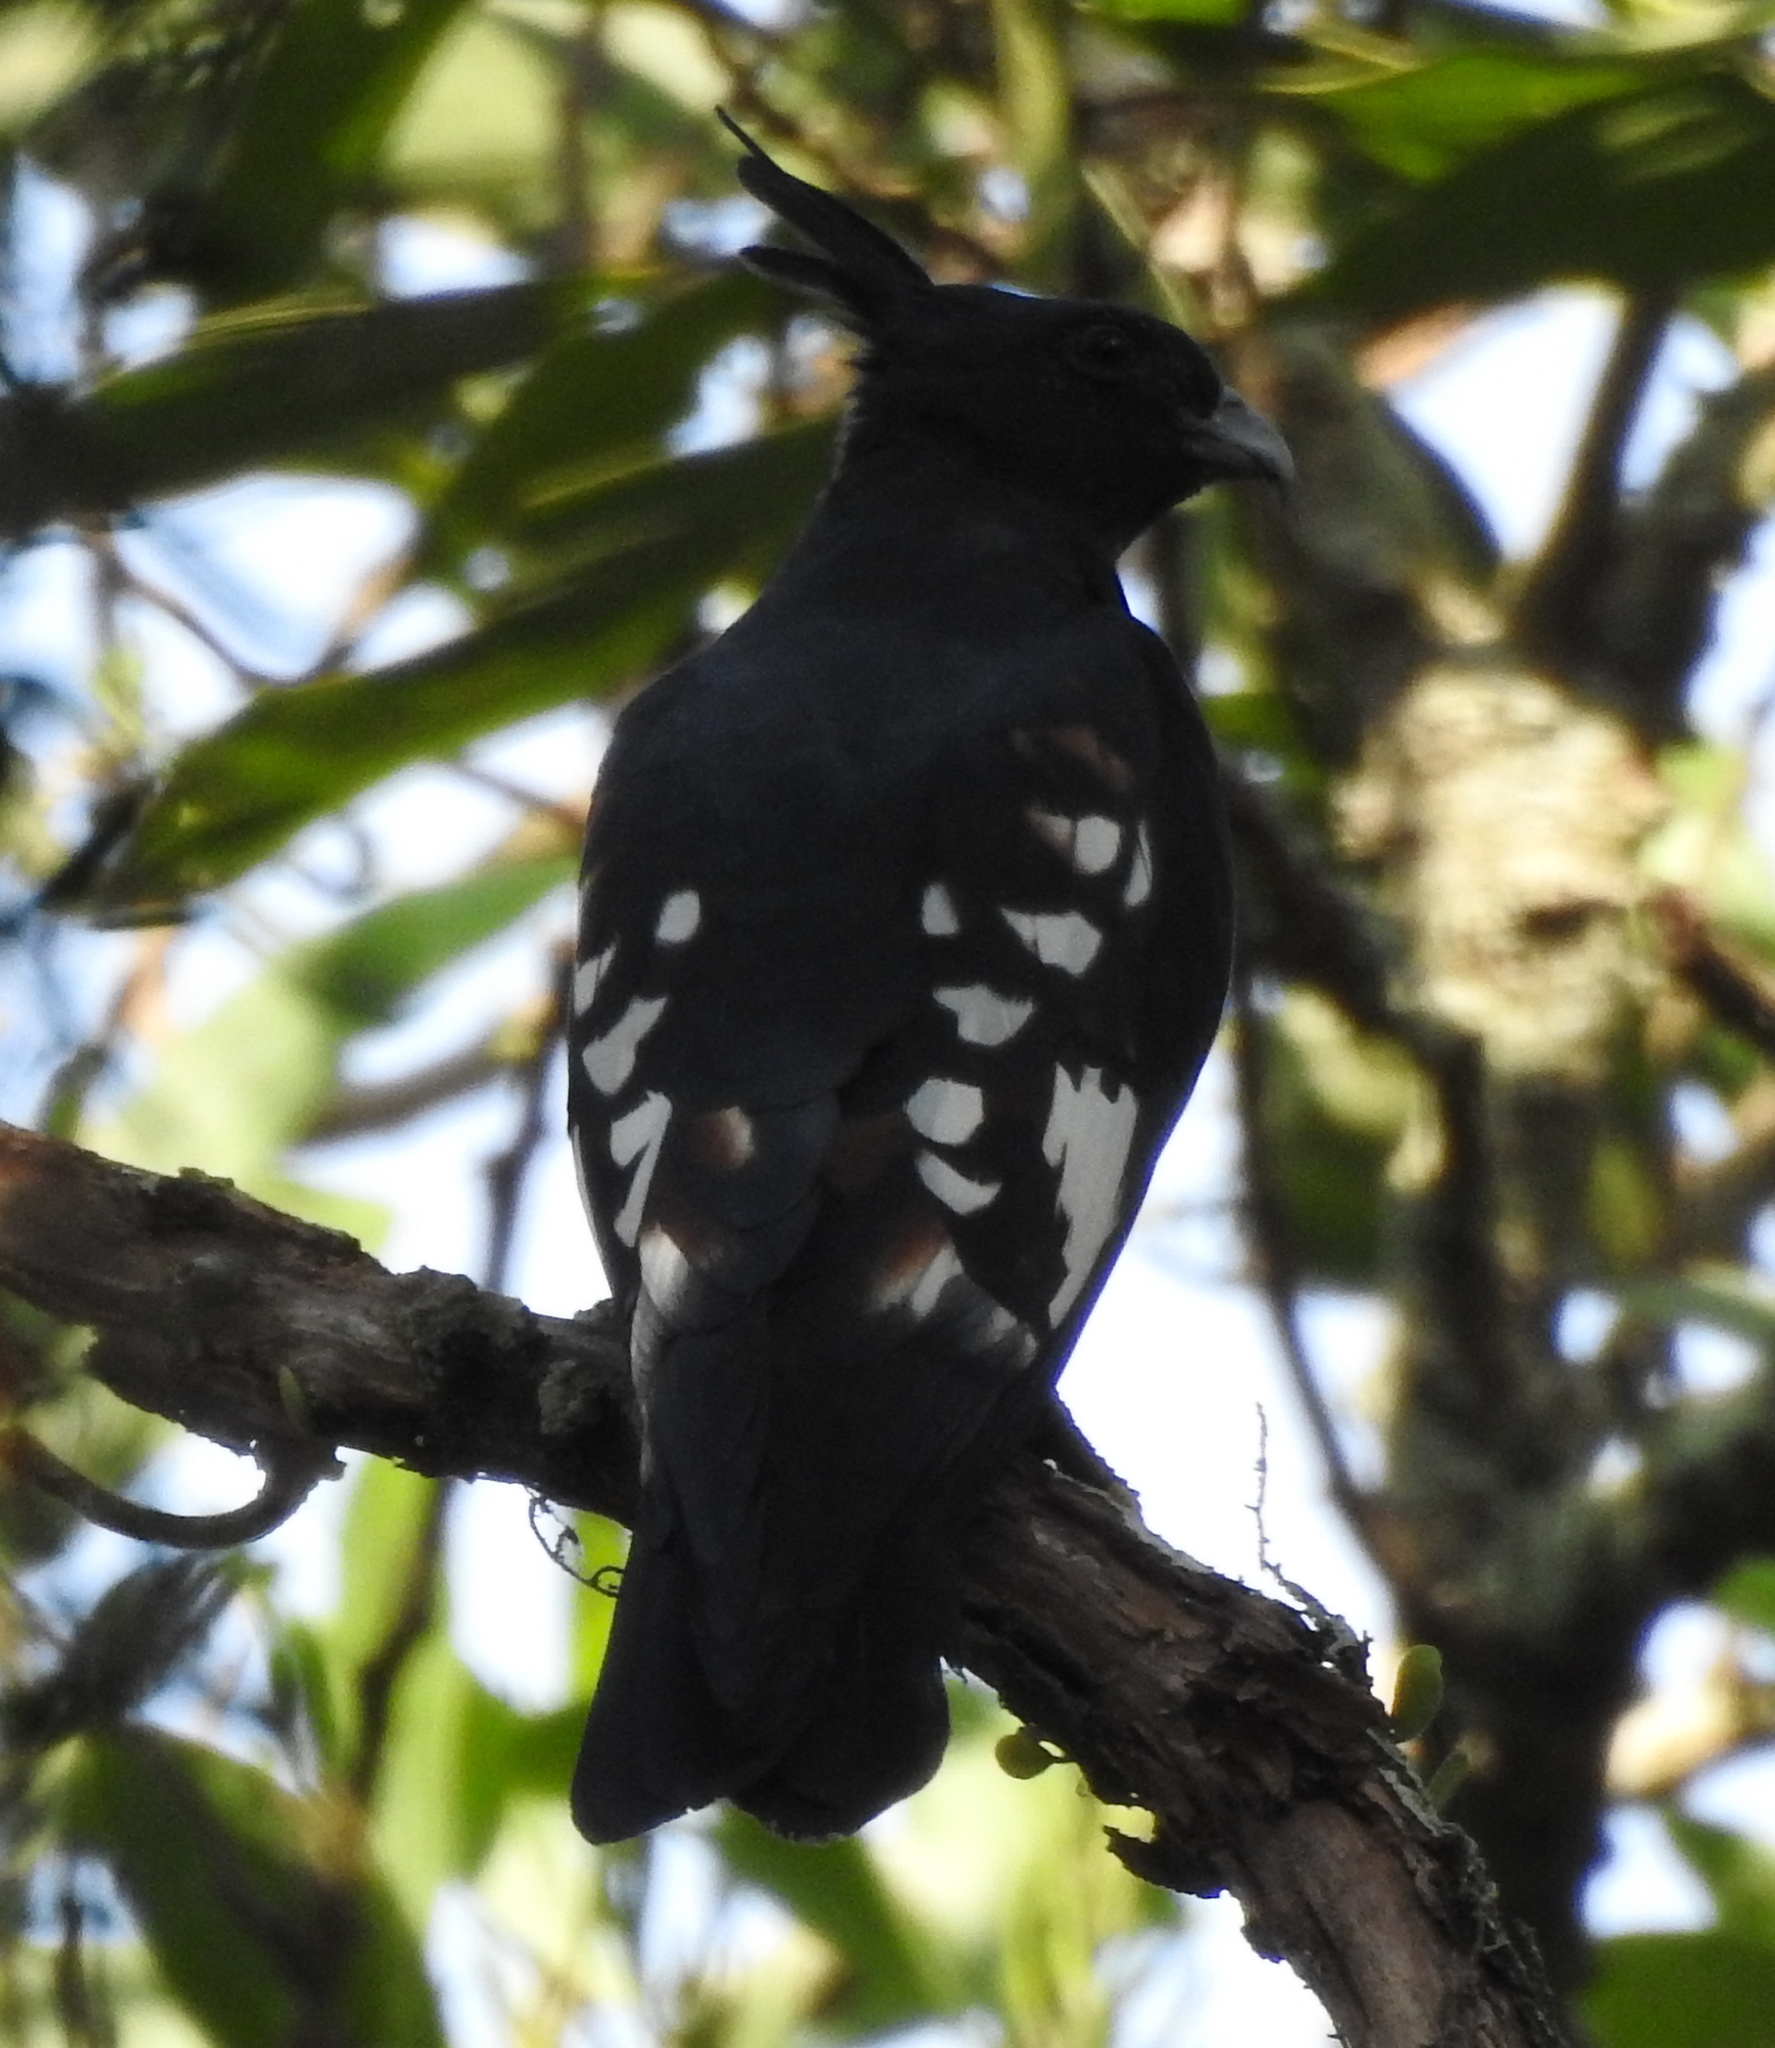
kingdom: Animalia
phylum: Chordata
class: Aves
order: Accipitriformes
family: Accipitridae
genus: Aviceda
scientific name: Aviceda leuphotes
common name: Black baza
